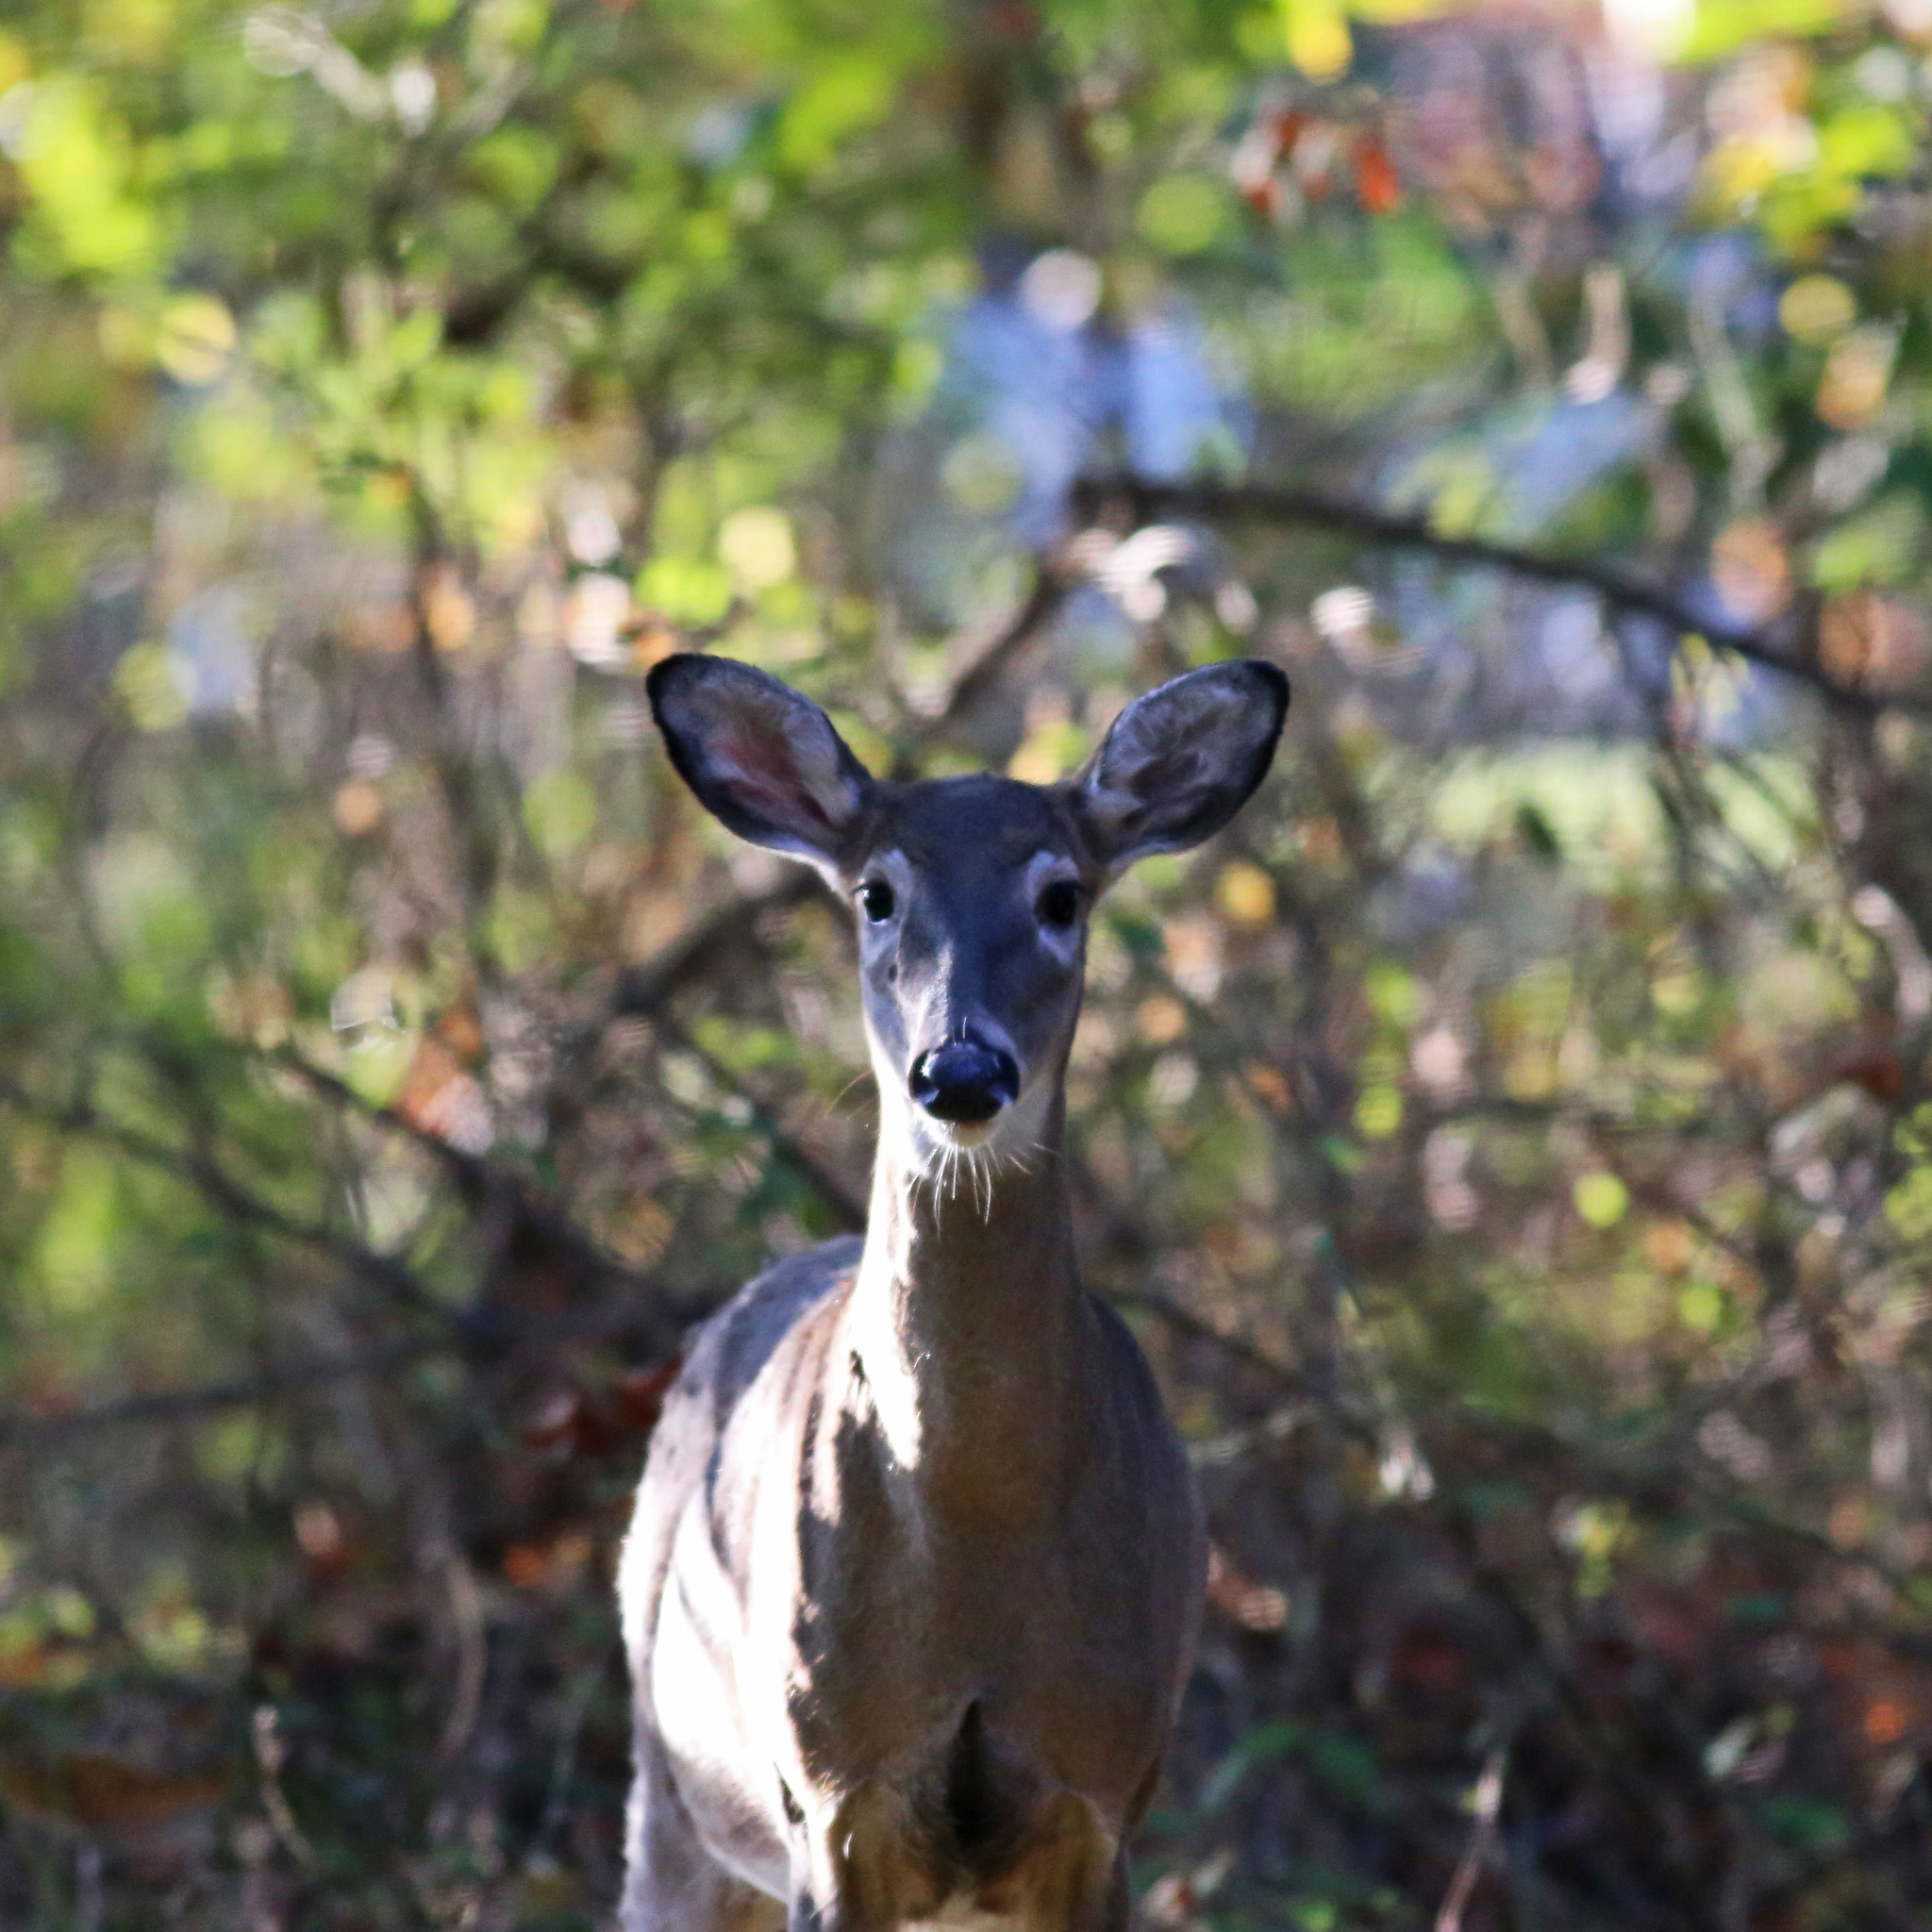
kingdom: Animalia
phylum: Chordata
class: Mammalia
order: Artiodactyla
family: Cervidae
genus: Odocoileus
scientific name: Odocoileus virginianus
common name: White-tailed deer
